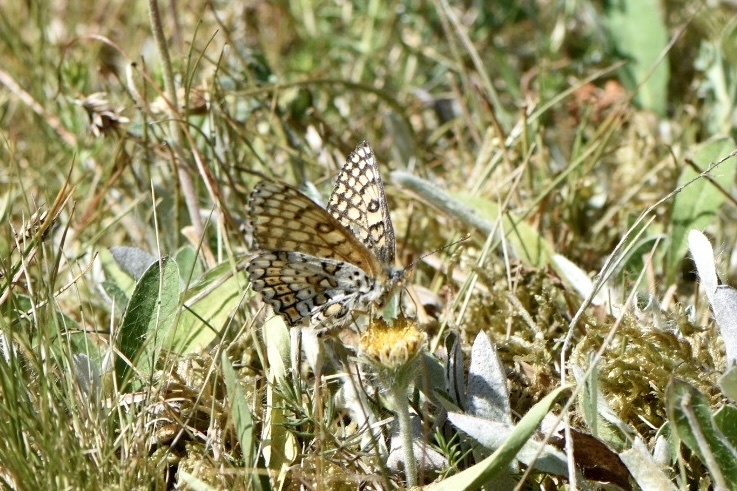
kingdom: Animalia
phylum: Arthropoda
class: Insecta
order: Lepidoptera
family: Nymphalidae
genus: Melitaea
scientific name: Melitaea cinxia
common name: Glanville fritillary
